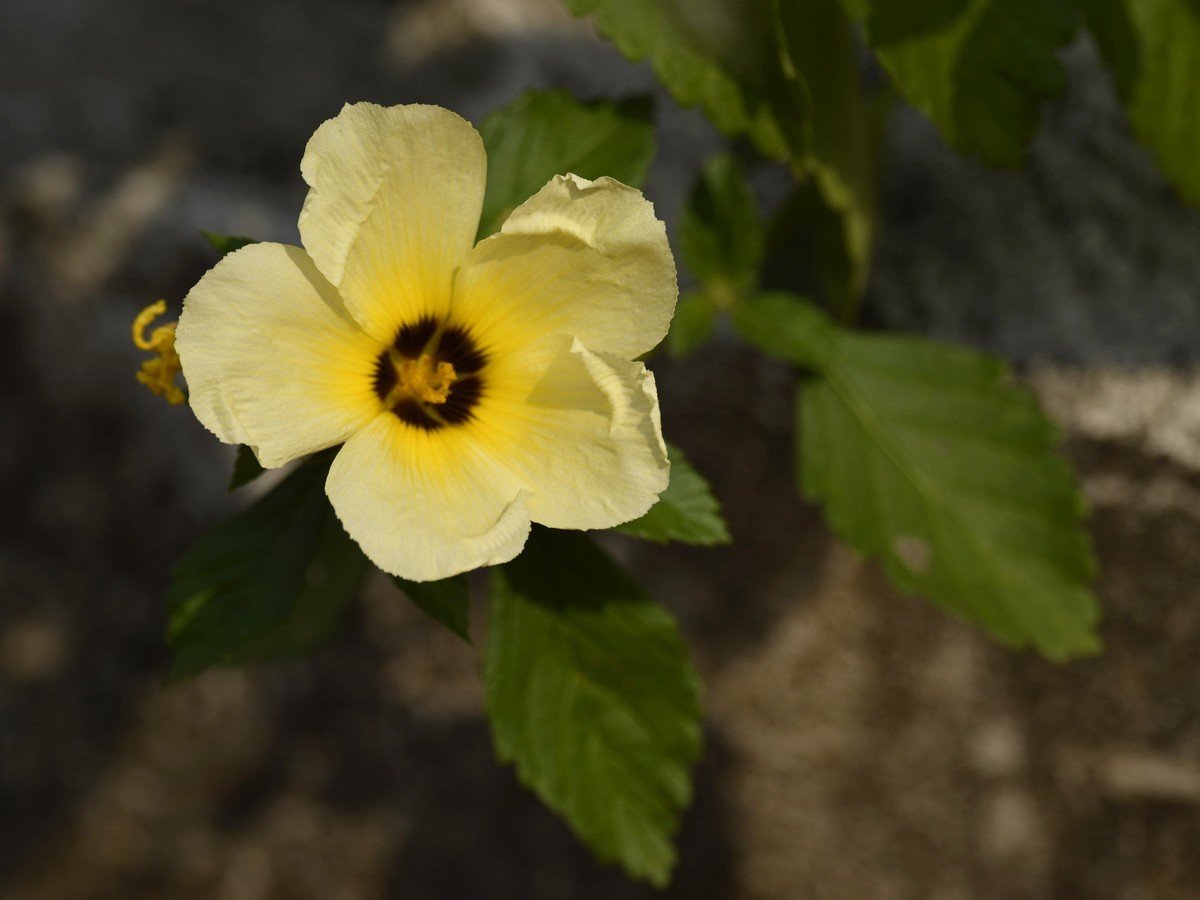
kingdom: Plantae
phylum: Tracheophyta
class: Magnoliopsida
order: Malpighiales
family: Turneraceae
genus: Turnera
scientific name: Turnera subulata
